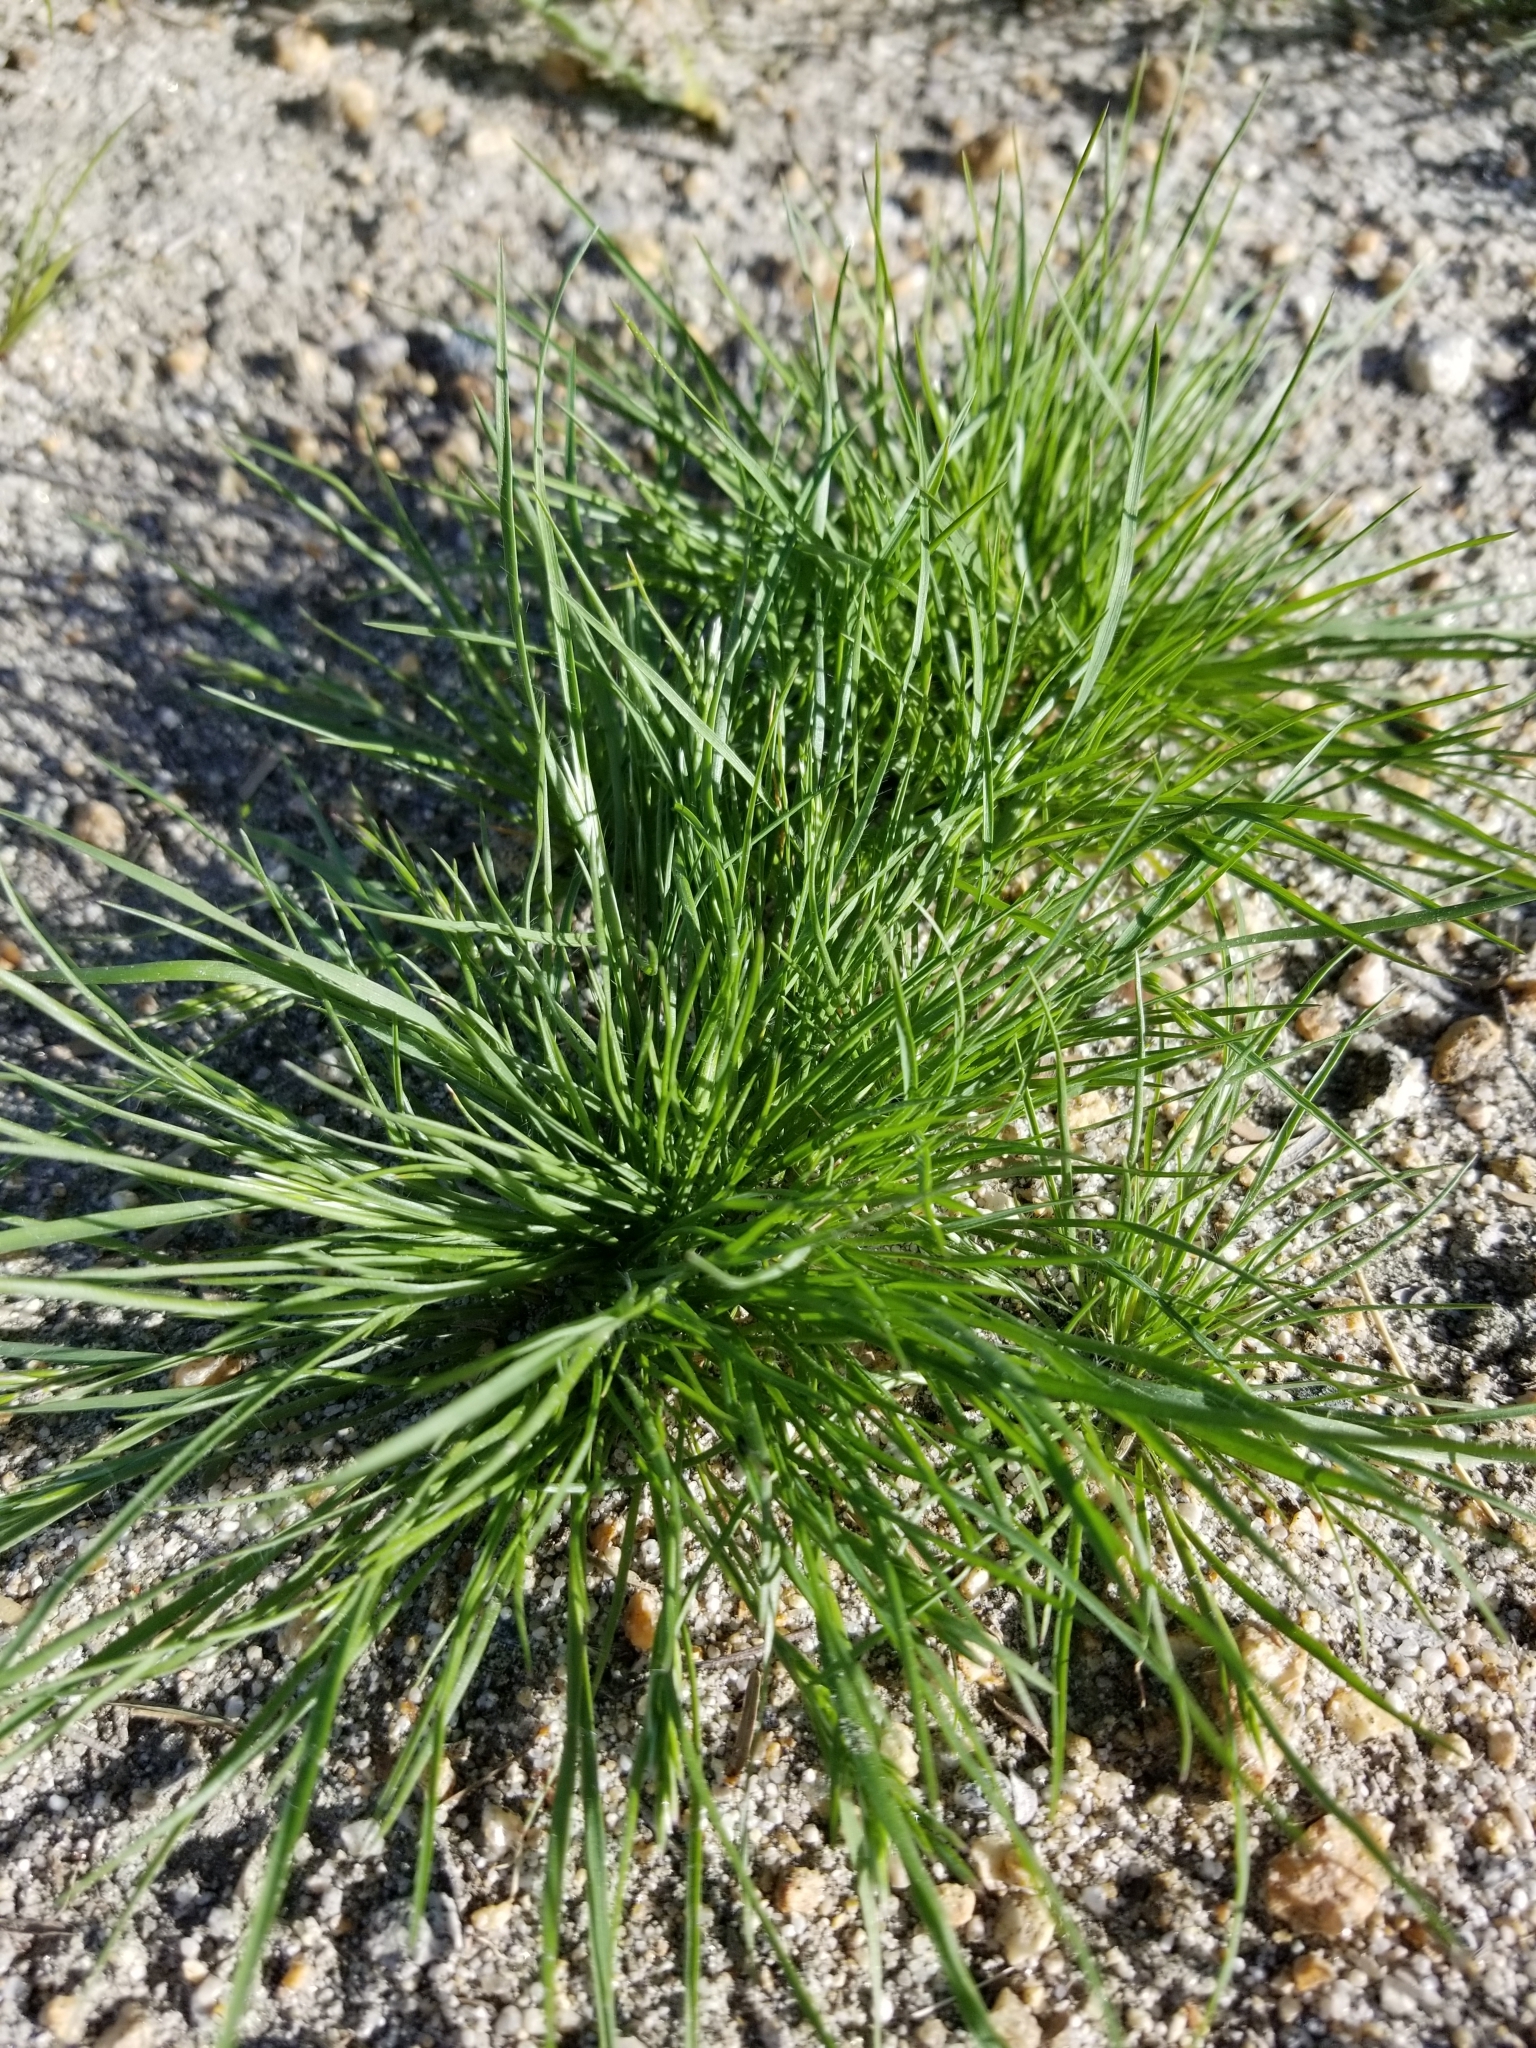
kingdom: Plantae
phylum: Tracheophyta
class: Liliopsida
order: Poales
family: Poaceae
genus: Schismus
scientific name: Schismus barbatus
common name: Kelch-grass
